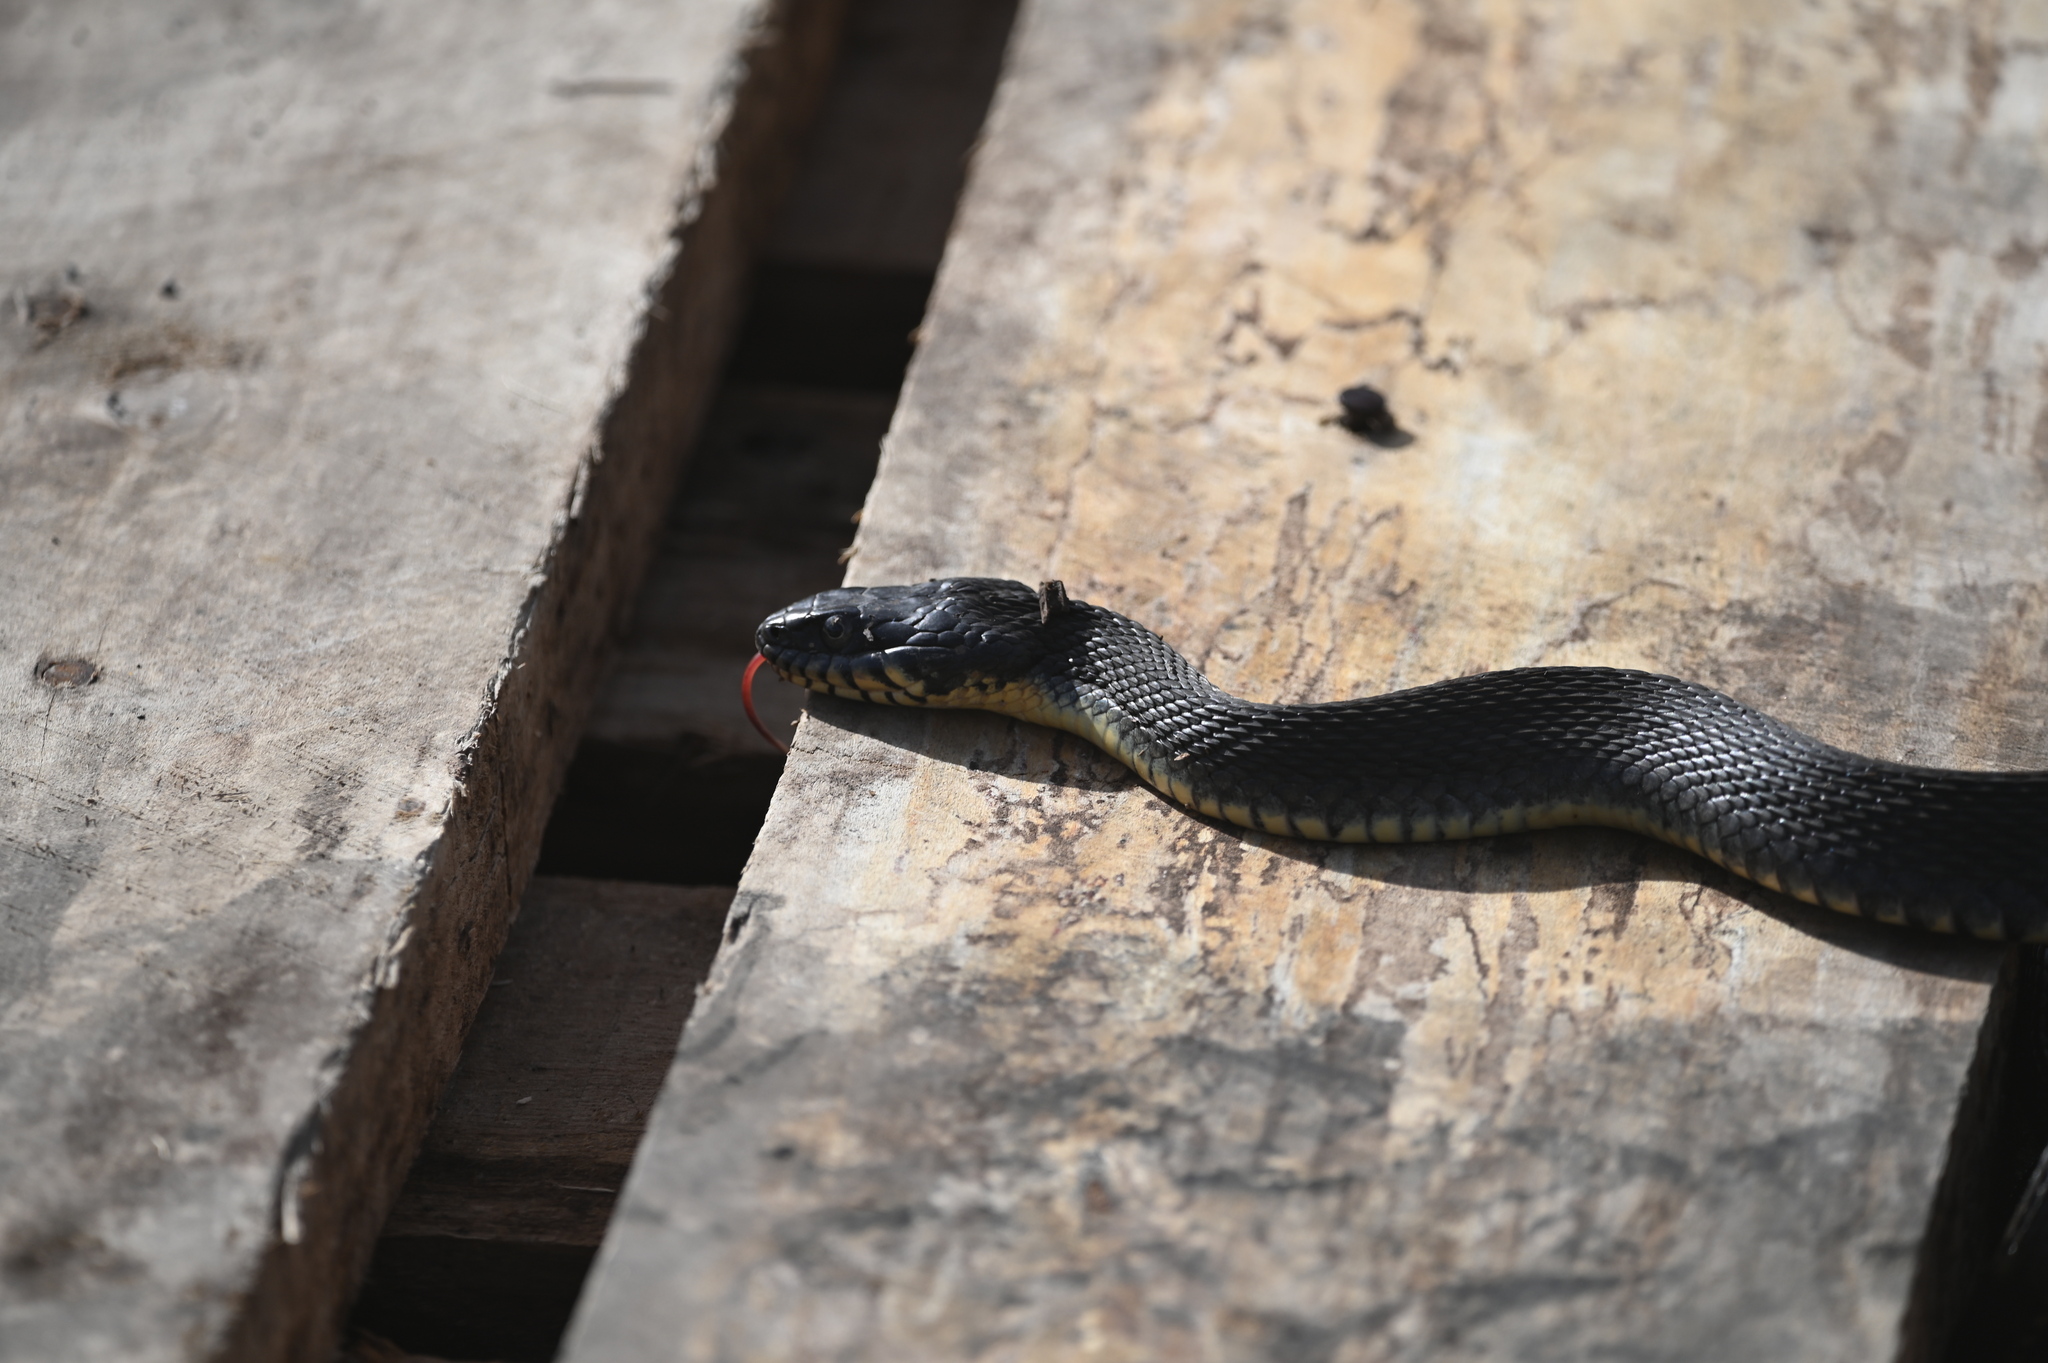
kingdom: Animalia
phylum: Chordata
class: Squamata
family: Colubridae
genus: Nerodia
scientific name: Nerodia erythrogaster
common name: Plainbelly water snake
